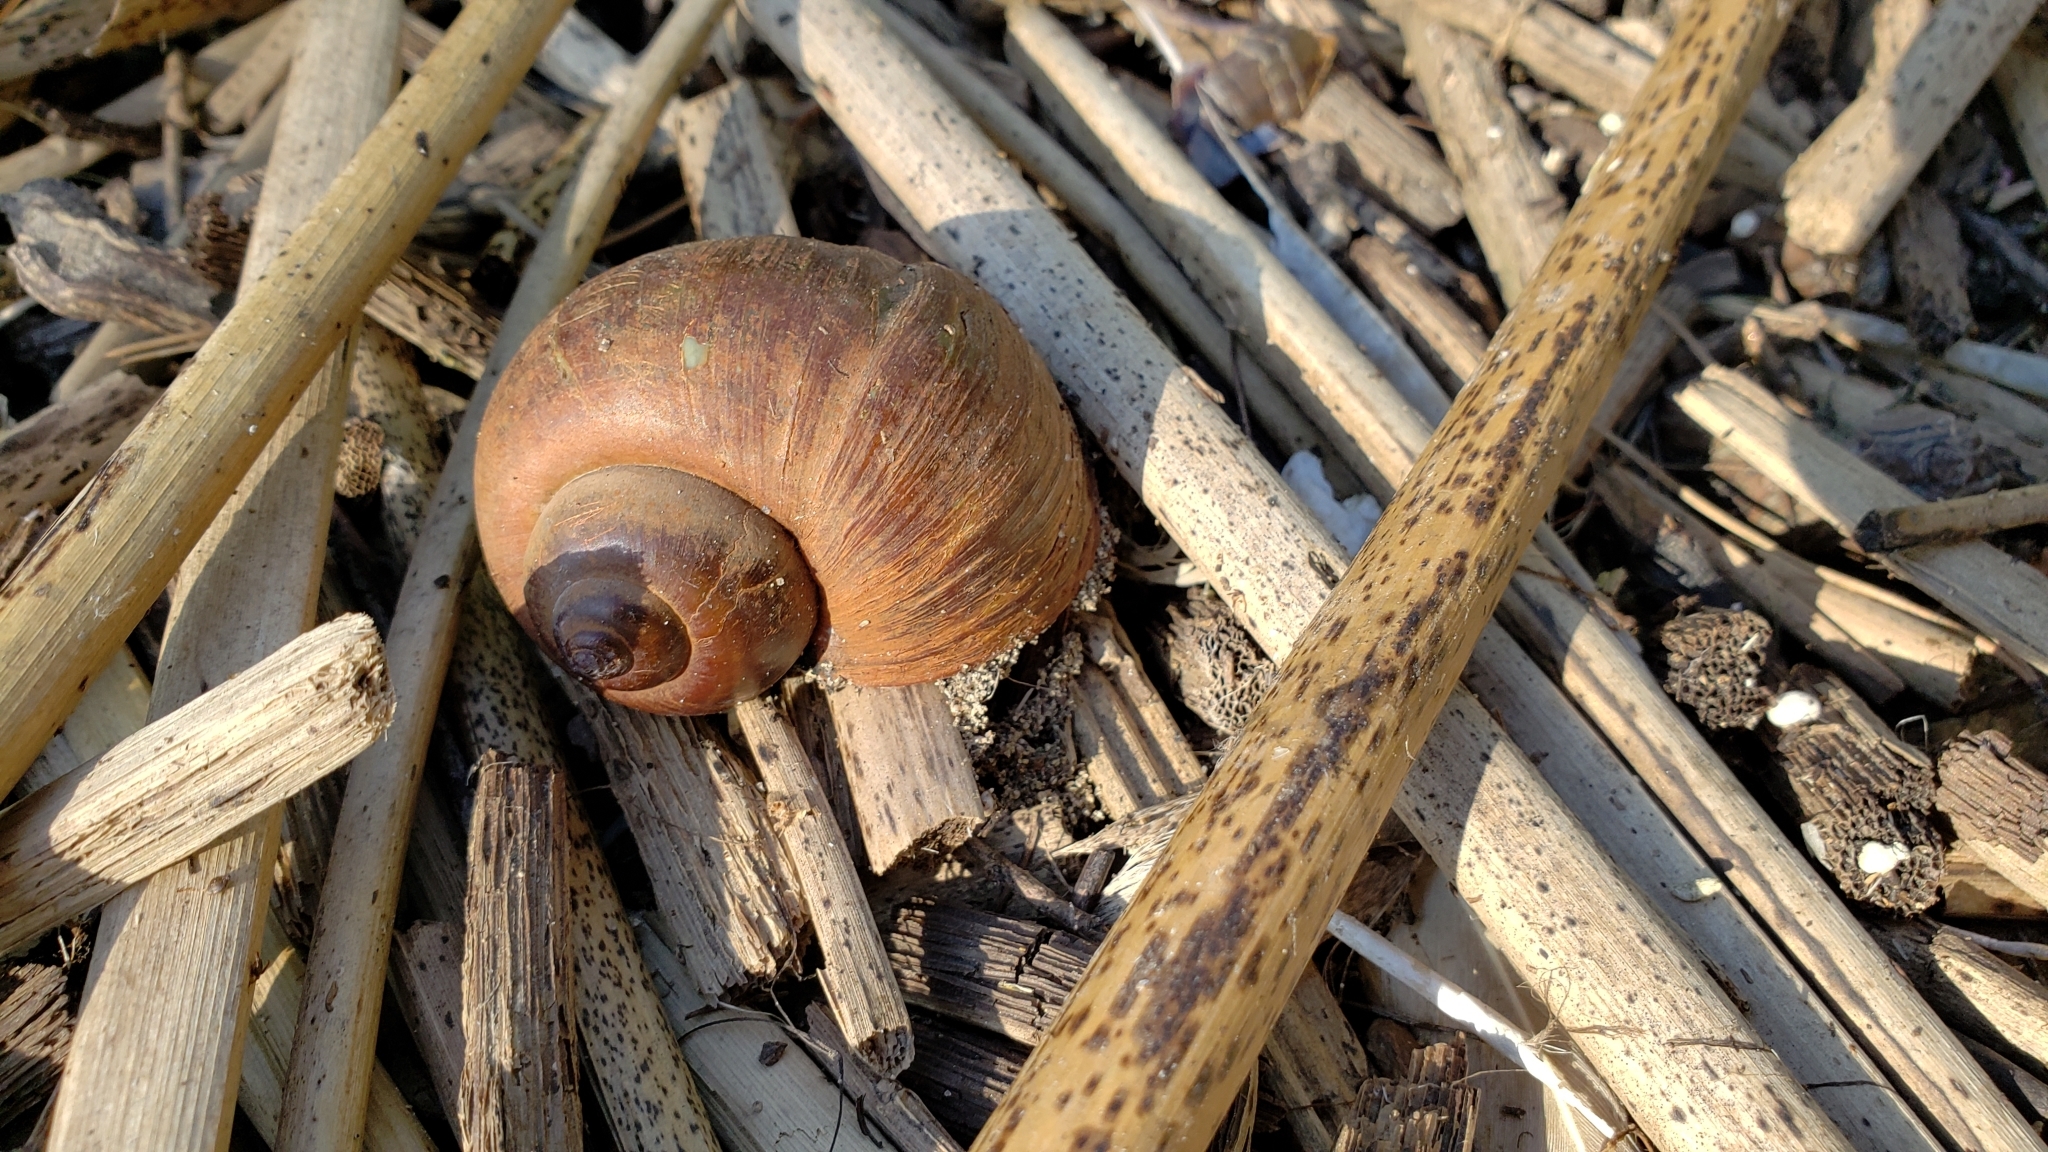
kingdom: Animalia
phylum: Mollusca
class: Gastropoda
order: Architaenioglossa
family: Ampullariidae
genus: Pomacea
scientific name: Pomacea canaliculata
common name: Channeled applesnail
